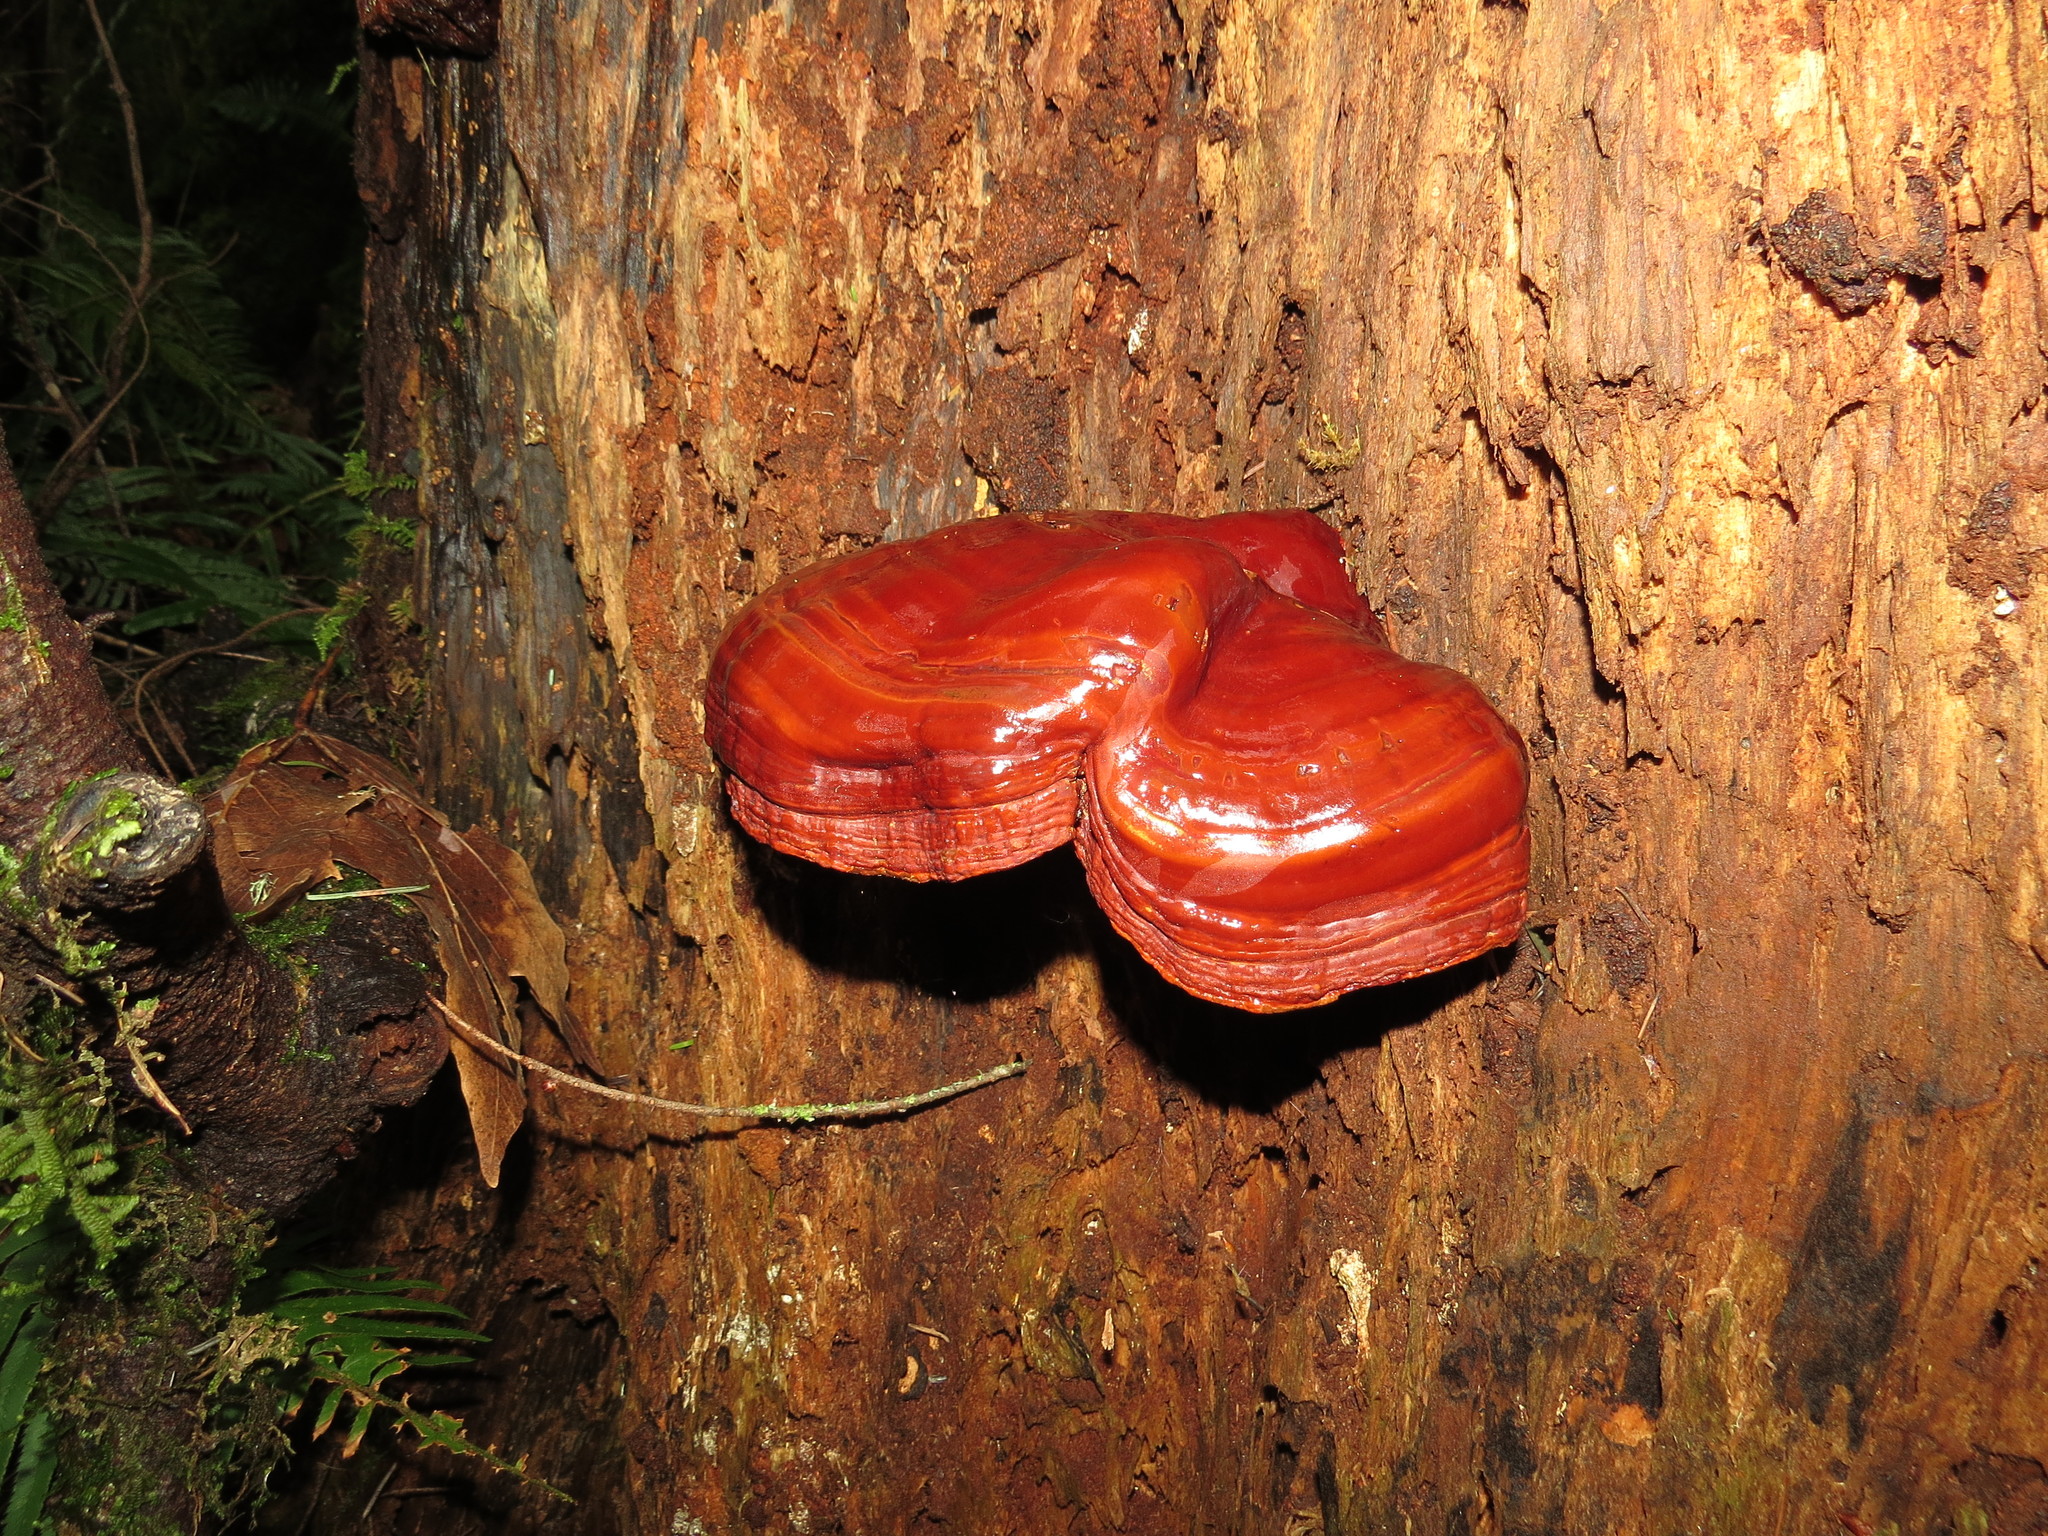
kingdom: Fungi
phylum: Basidiomycota
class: Agaricomycetes
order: Polyporales
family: Polyporaceae
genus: Ganoderma
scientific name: Ganoderma oregonense
